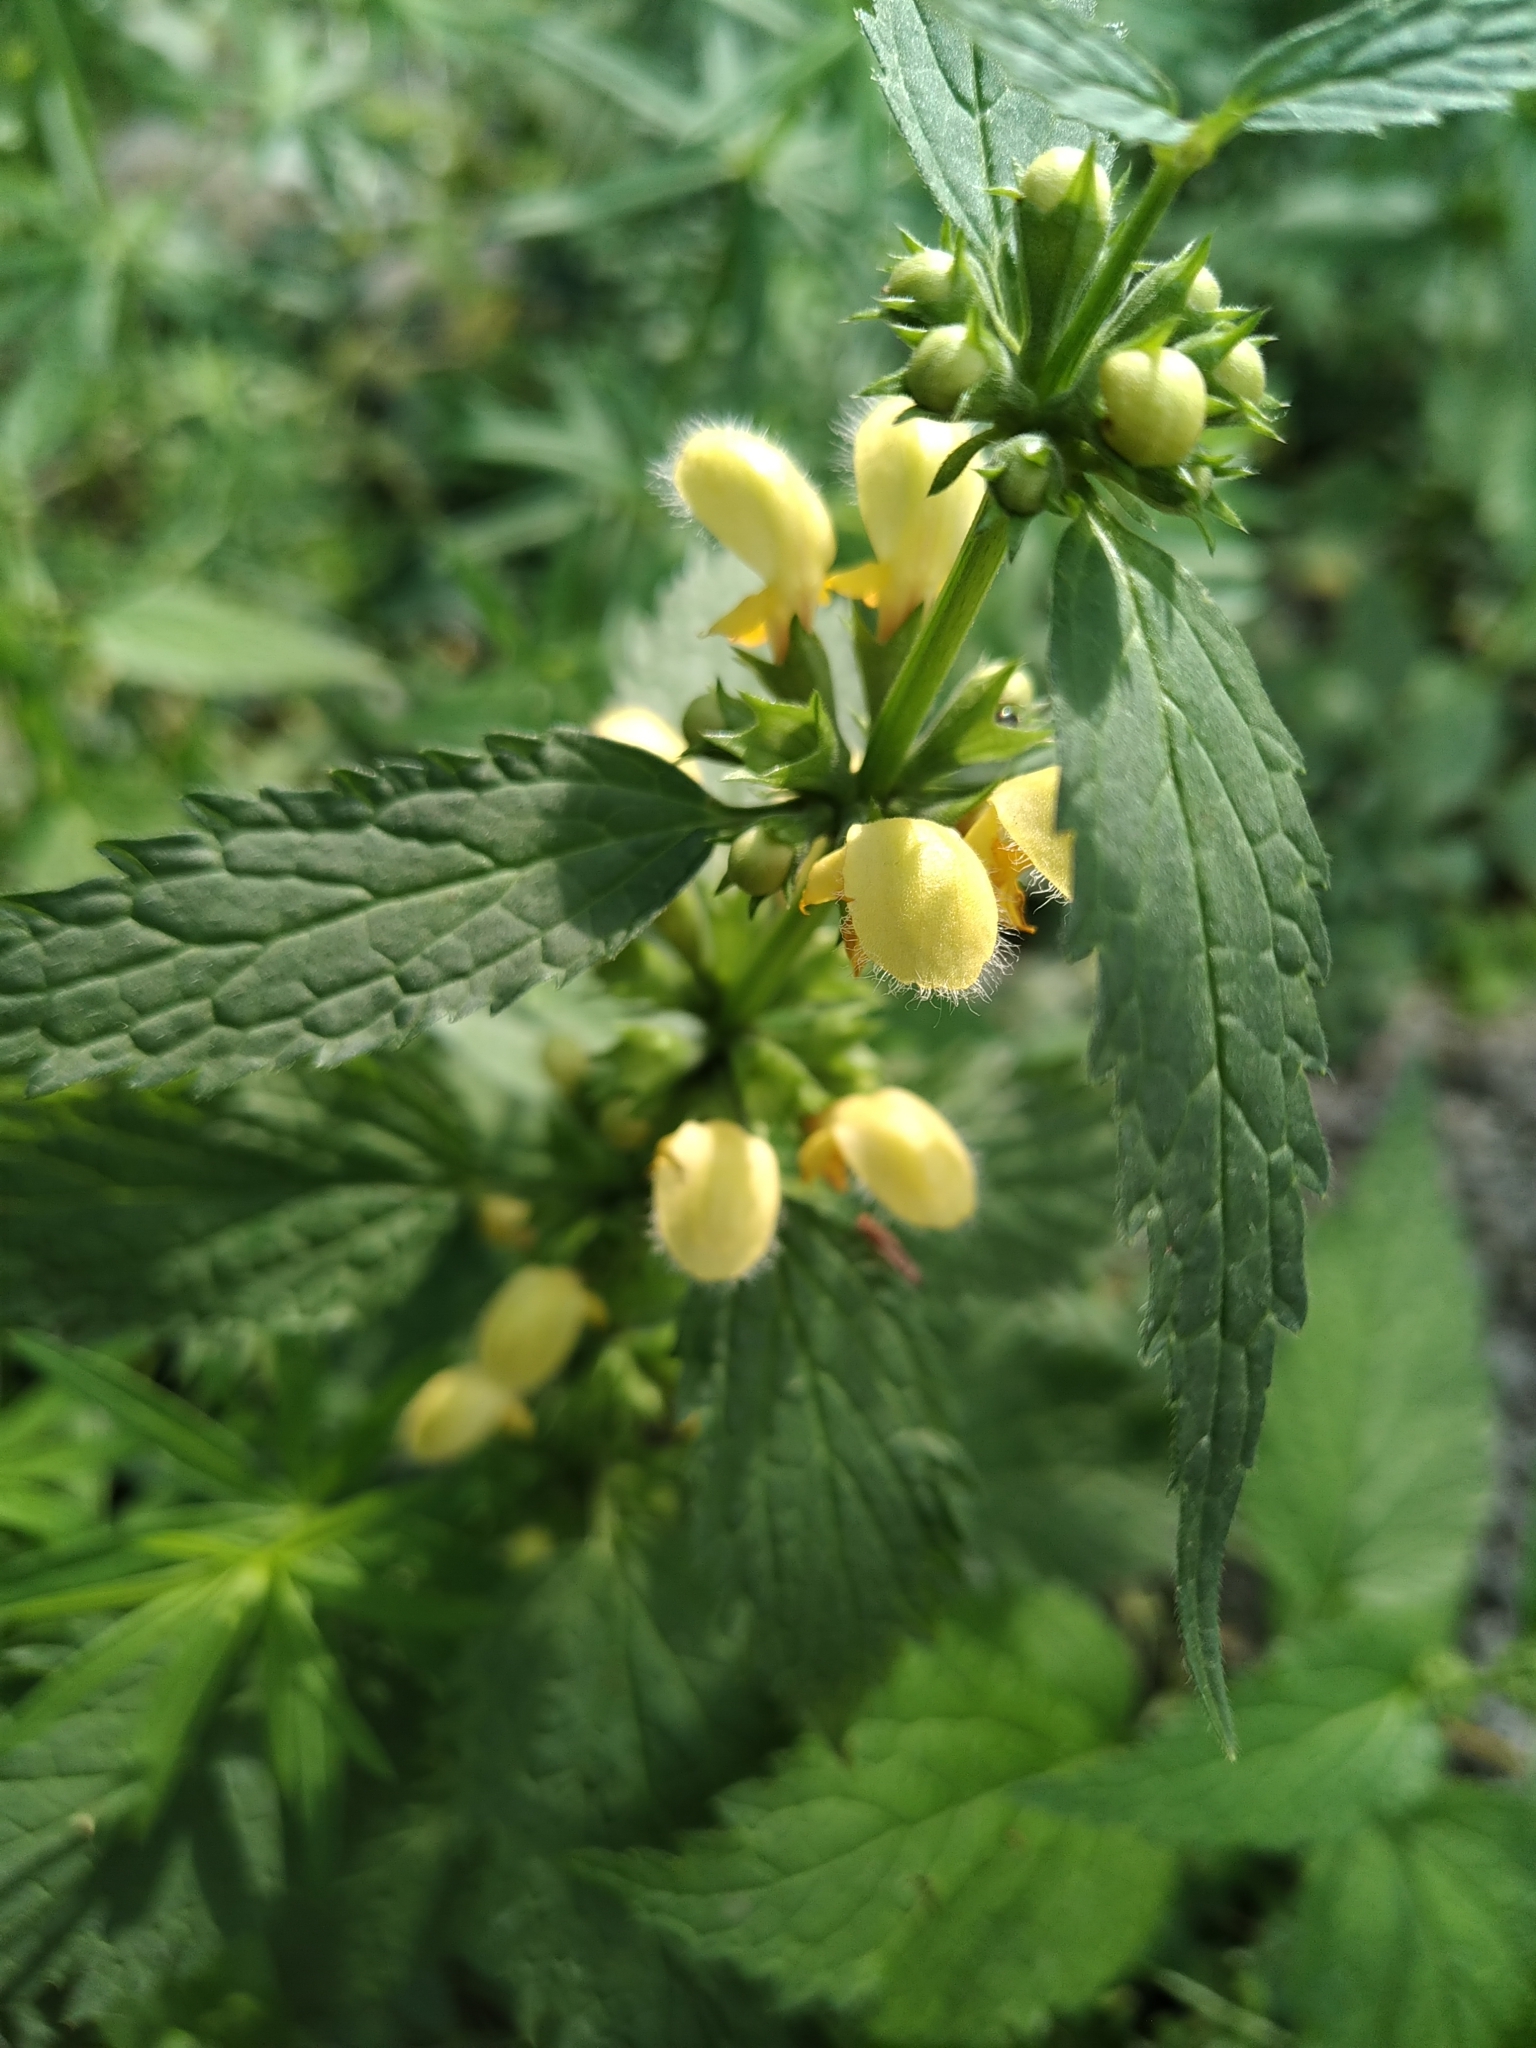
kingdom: Plantae
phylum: Tracheophyta
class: Magnoliopsida
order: Lamiales
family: Lamiaceae
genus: Lamium
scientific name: Lamium galeobdolon
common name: Yellow archangel
